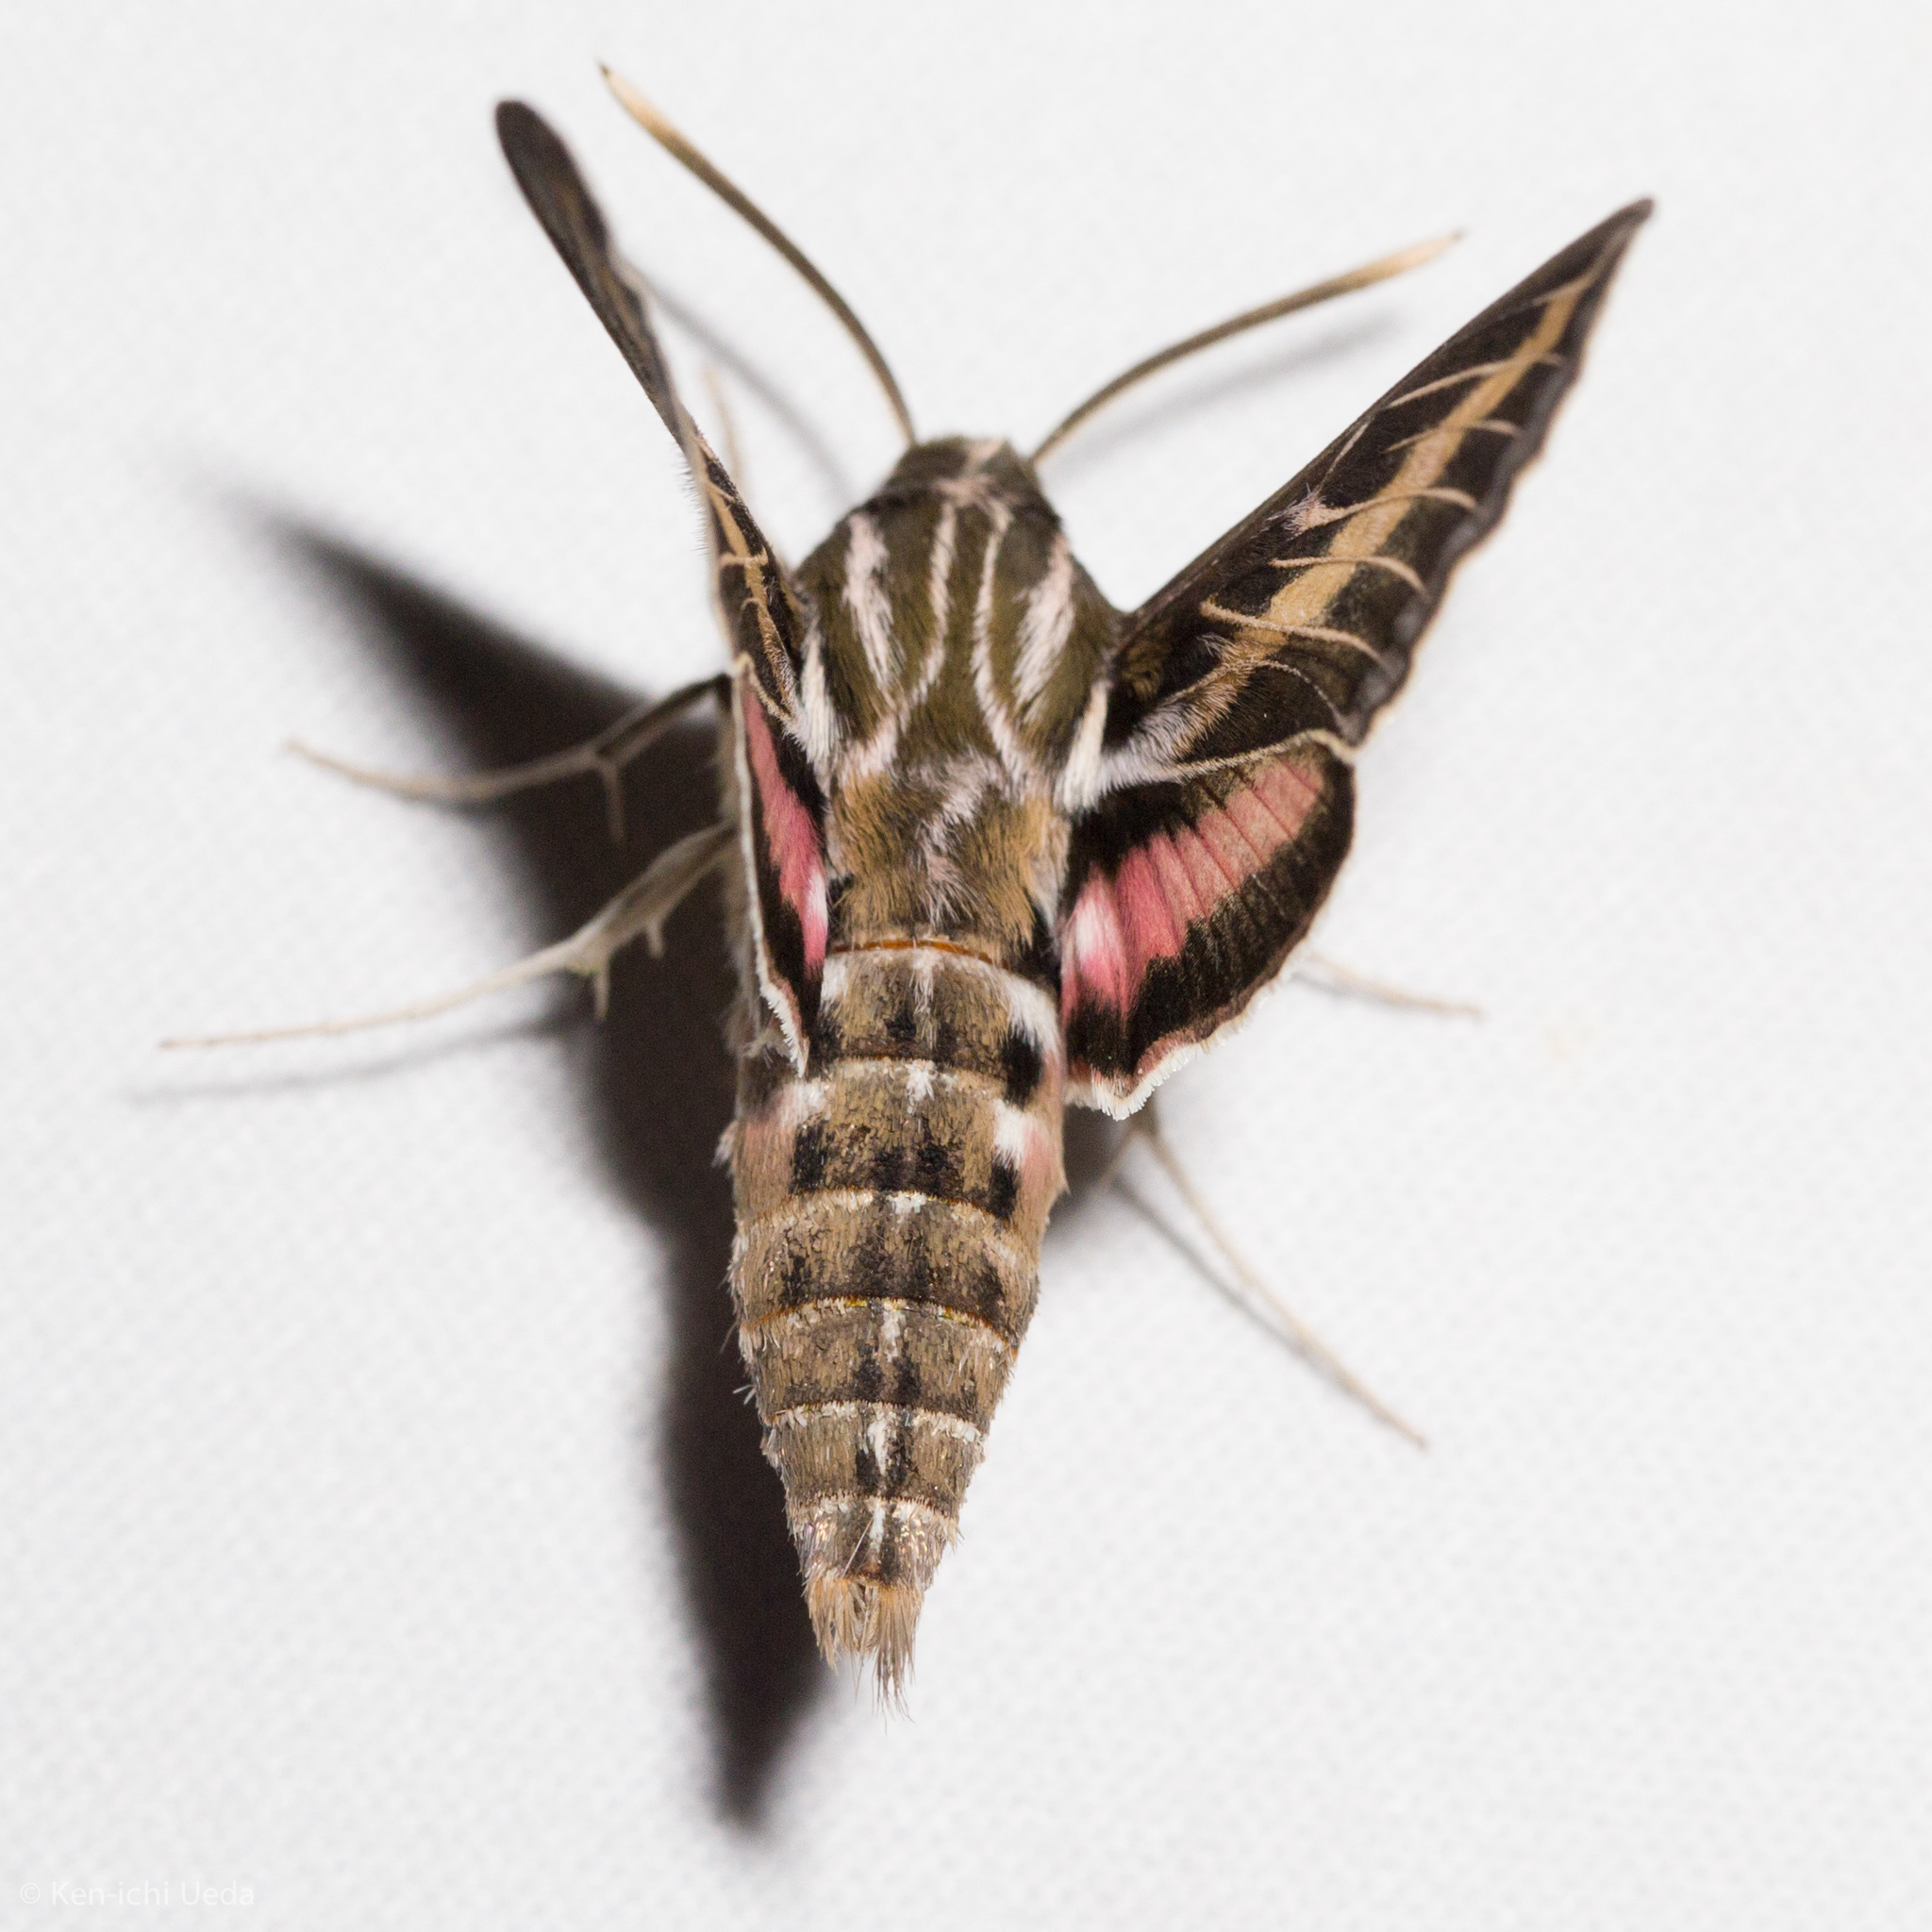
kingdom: Animalia
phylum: Arthropoda
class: Insecta
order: Lepidoptera
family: Sphingidae
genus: Hyles
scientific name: Hyles lineata
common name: White-lined sphinx
